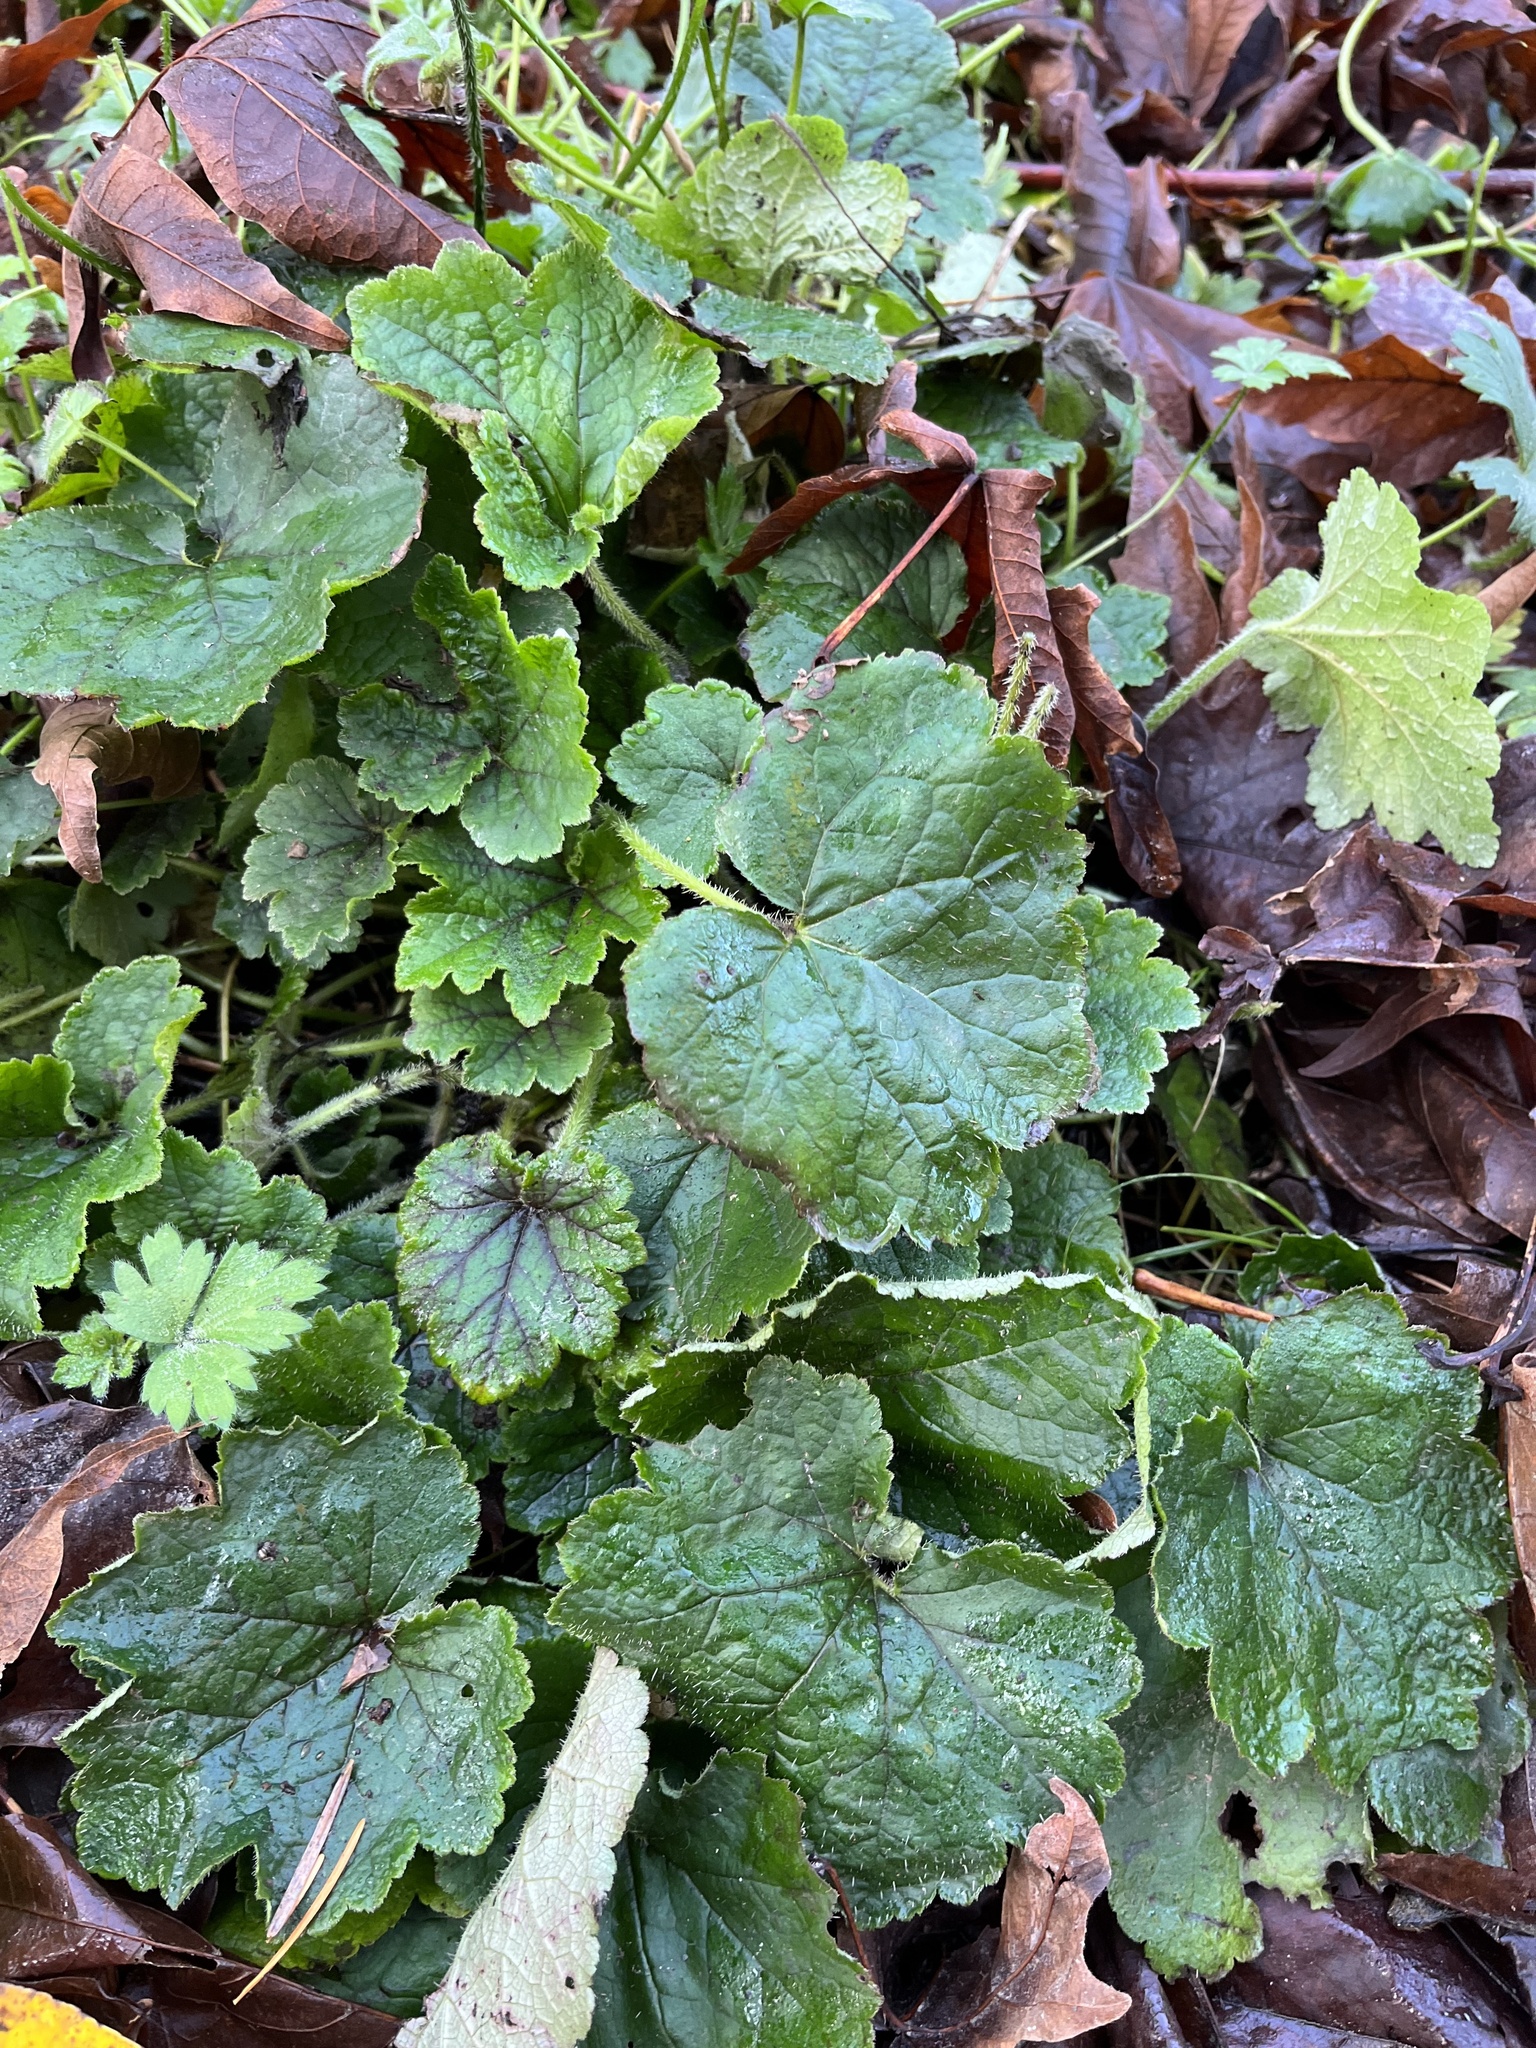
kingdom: Plantae
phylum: Tracheophyta
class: Magnoliopsida
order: Saxifragales
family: Saxifragaceae
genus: Tellima
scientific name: Tellima grandiflora
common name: Fringecups
